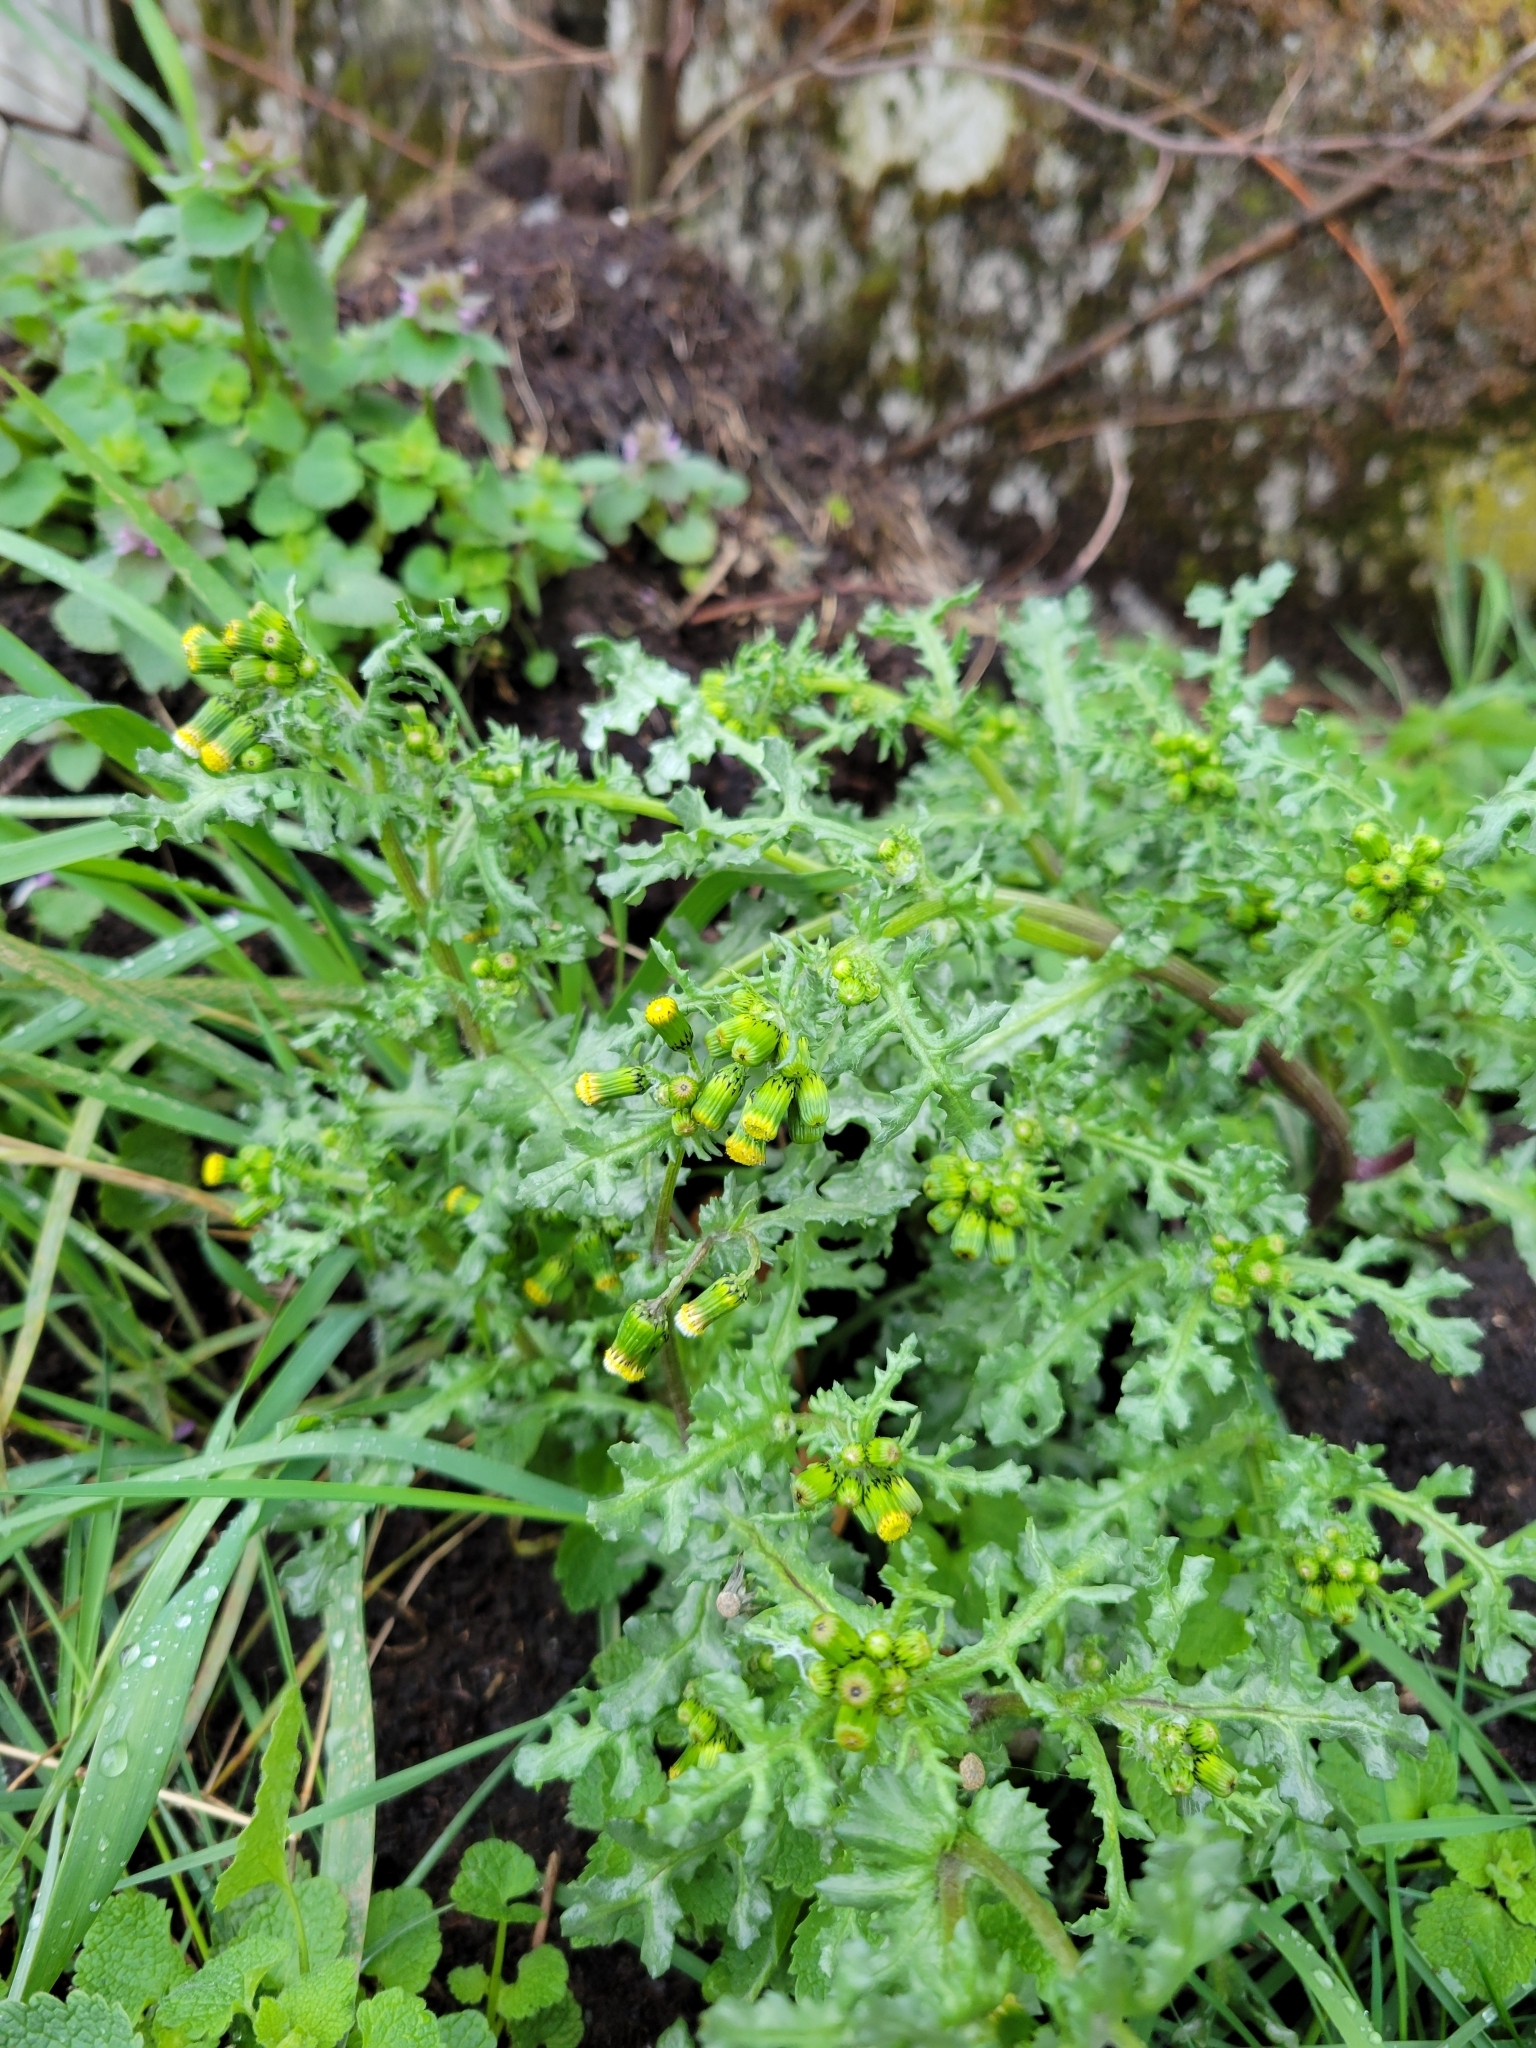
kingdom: Plantae
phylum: Tracheophyta
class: Magnoliopsida
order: Asterales
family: Asteraceae
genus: Senecio
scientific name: Senecio vulgaris
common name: Old-man-in-the-spring
